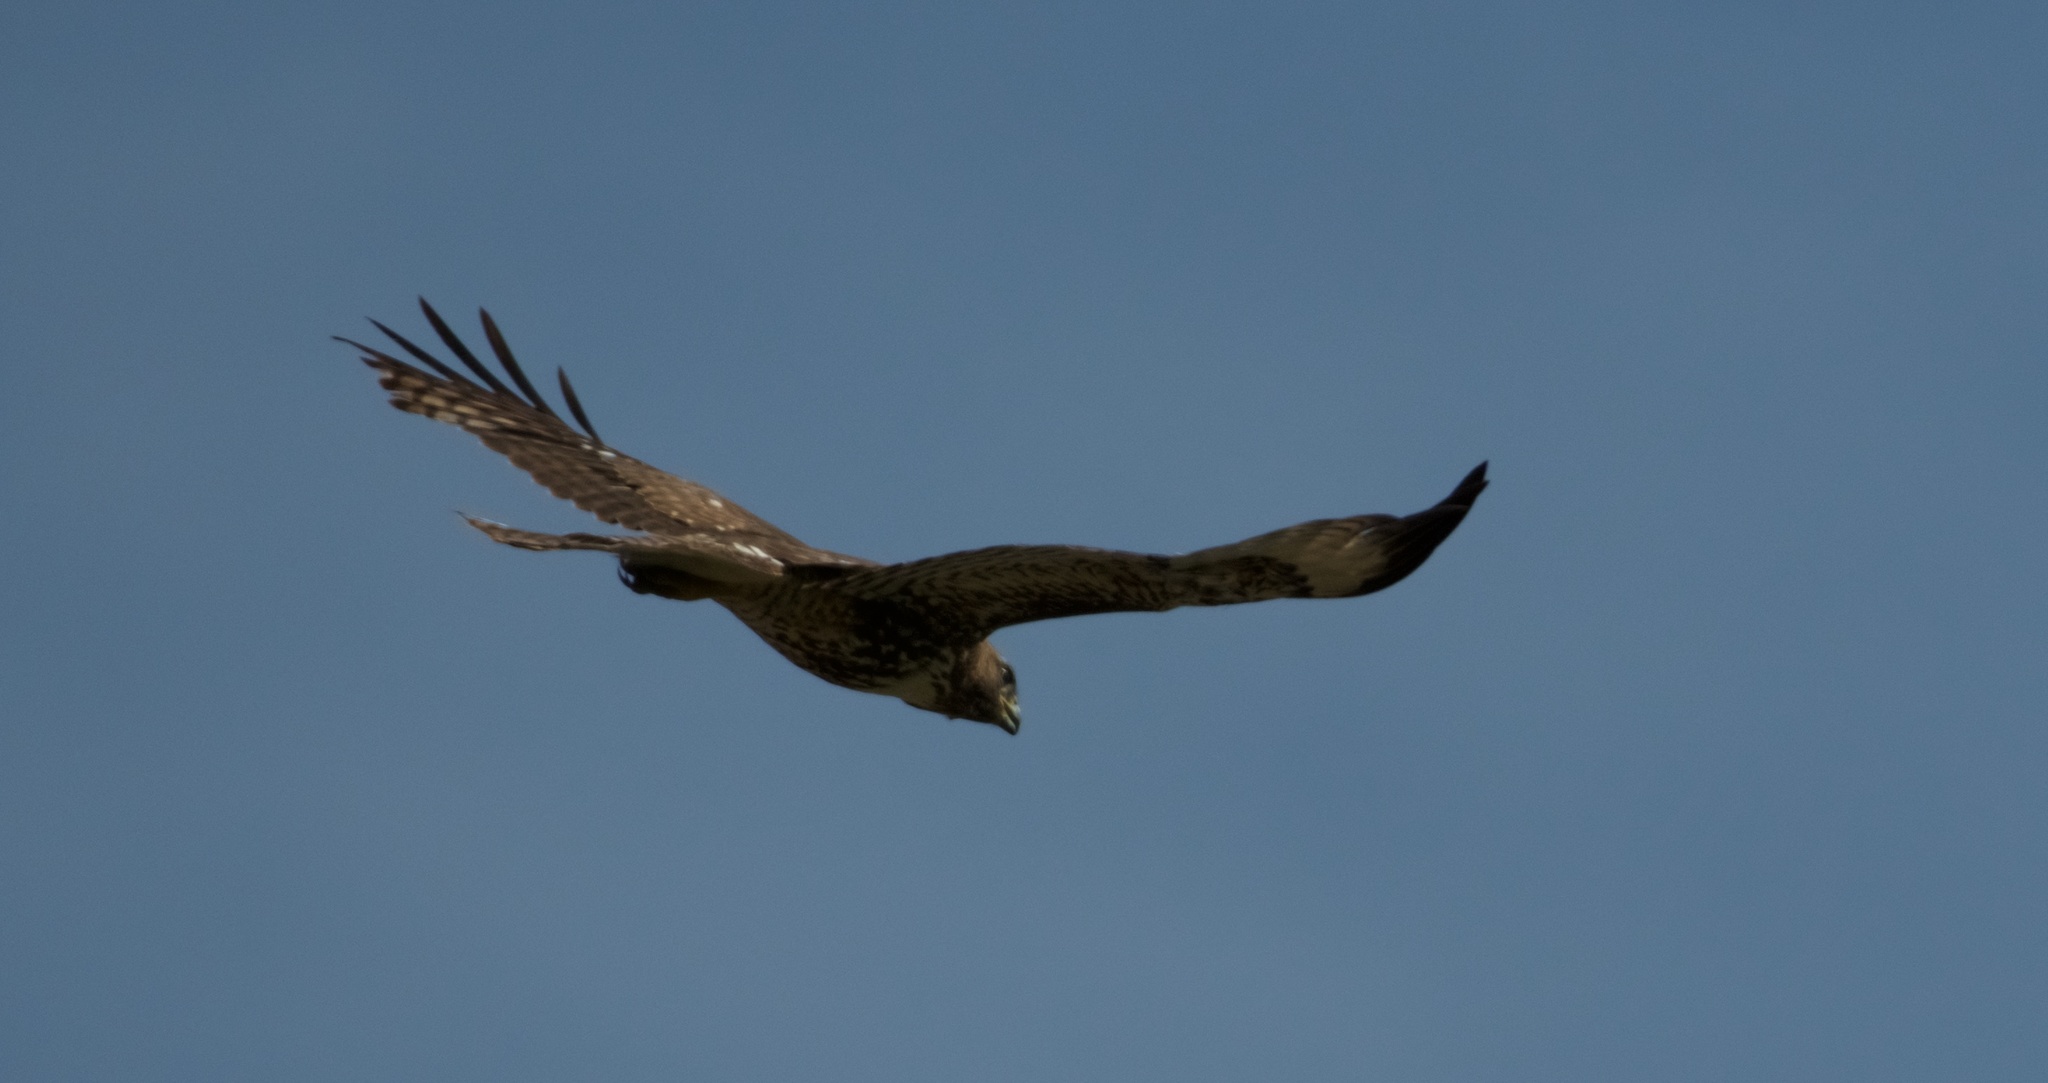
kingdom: Animalia
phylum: Chordata
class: Aves
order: Accipitriformes
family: Accipitridae
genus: Buteo
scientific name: Buteo jamaicensis
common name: Red-tailed hawk
